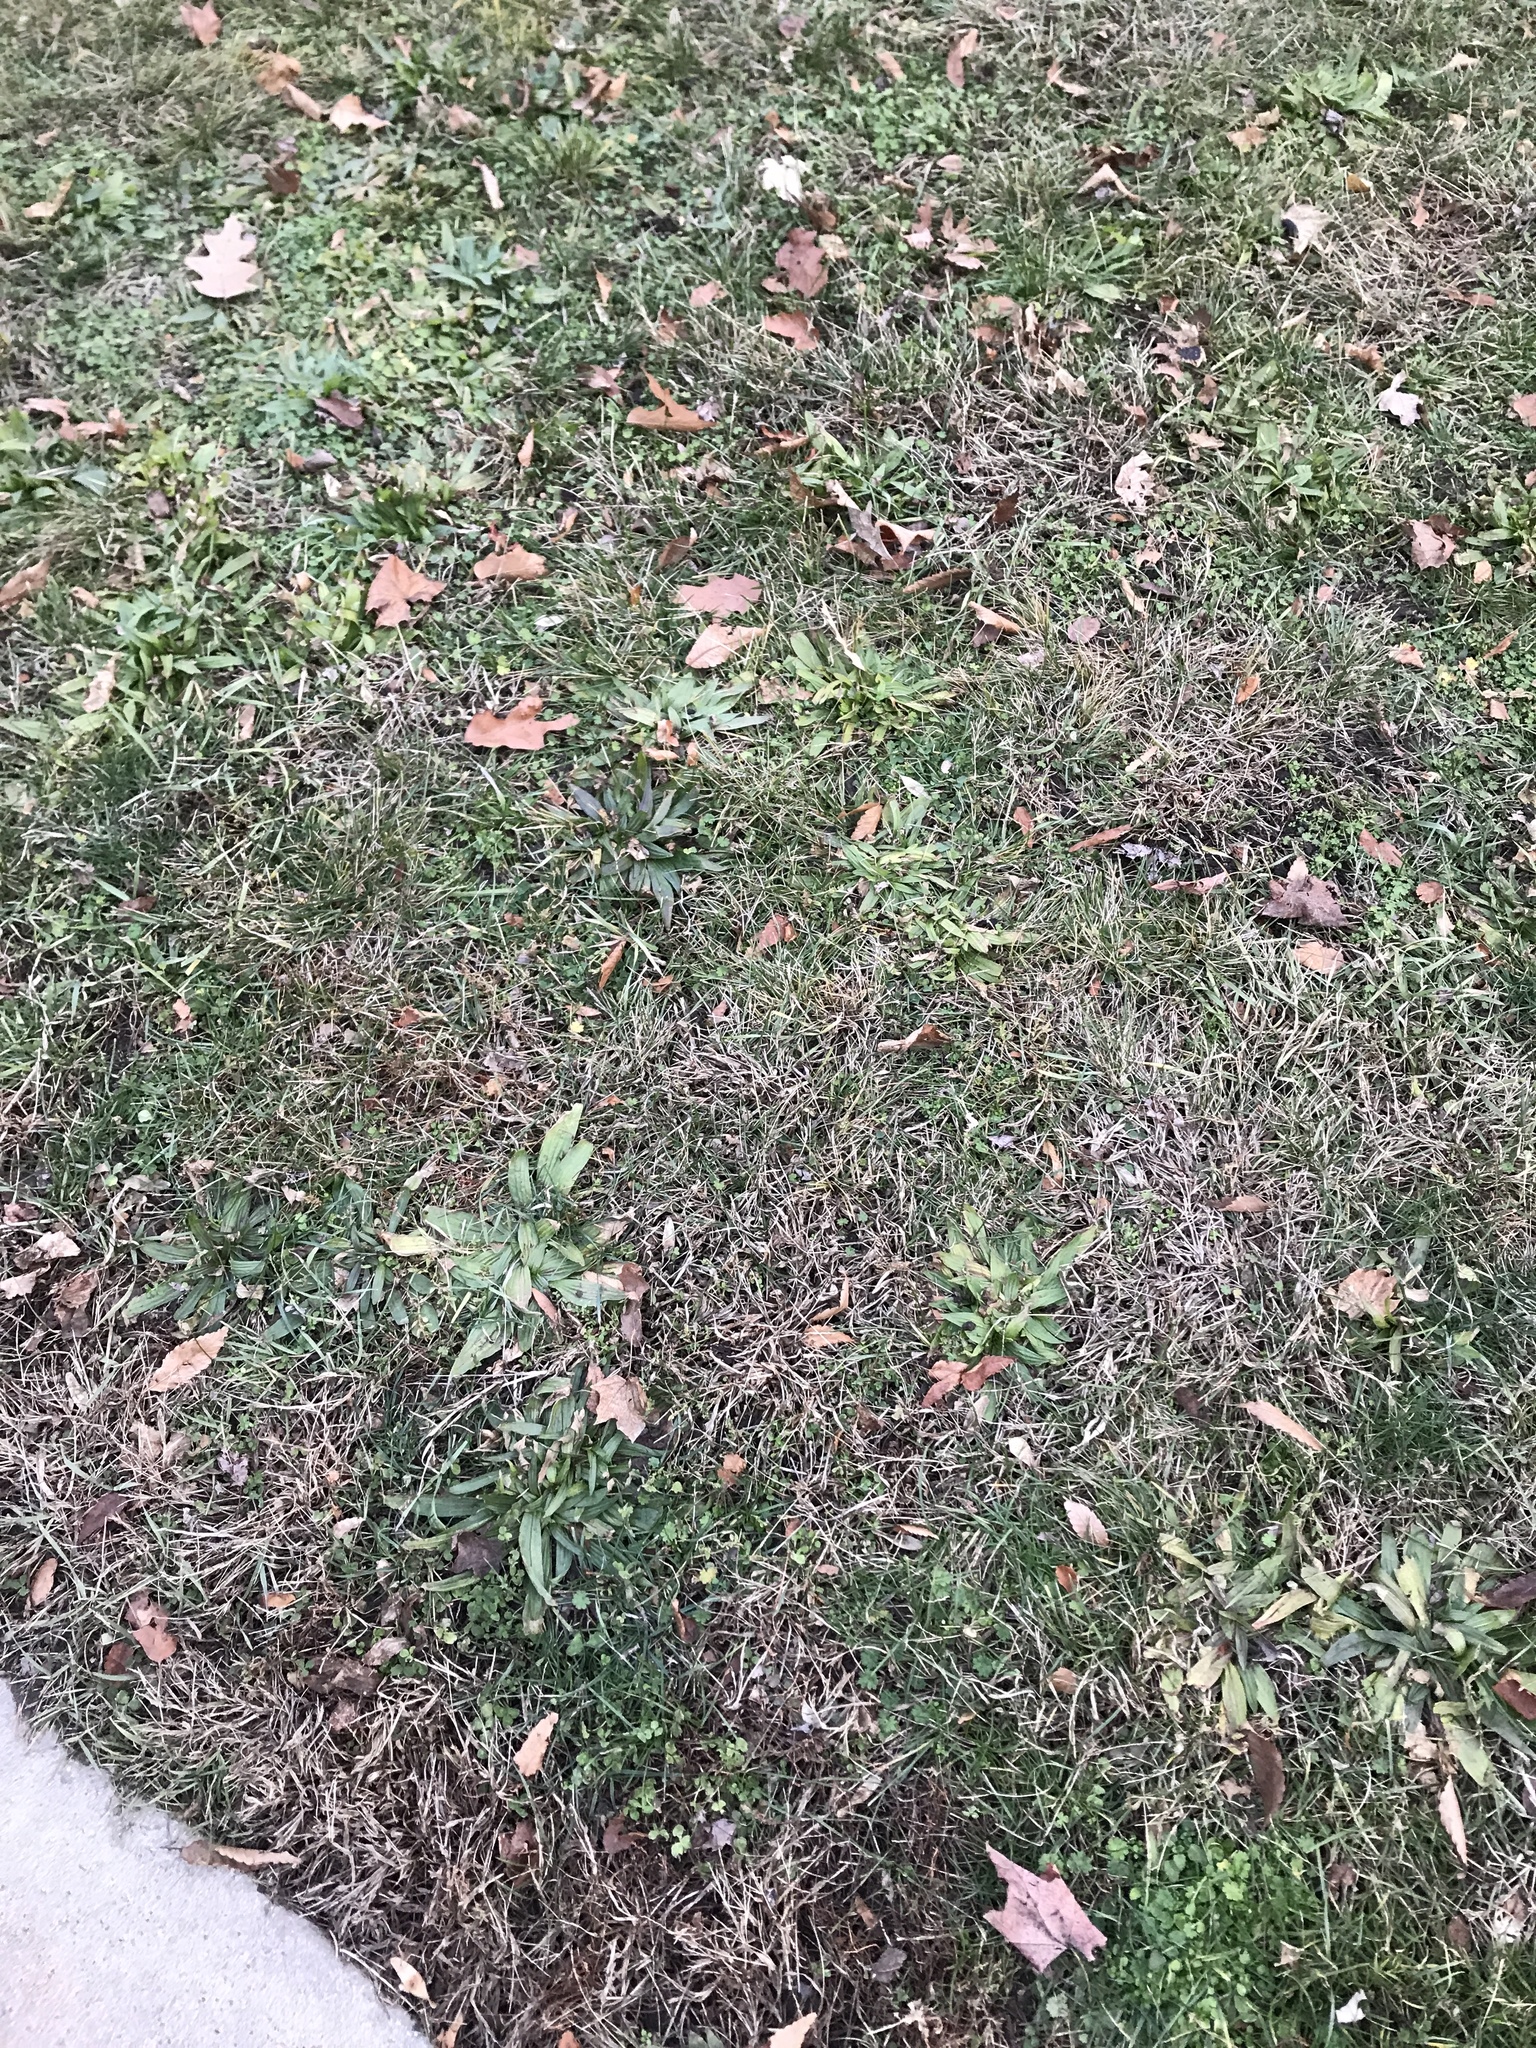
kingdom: Plantae
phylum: Tracheophyta
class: Magnoliopsida
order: Lamiales
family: Plantaginaceae
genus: Plantago
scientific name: Plantago lanceolata
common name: Ribwort plantain
